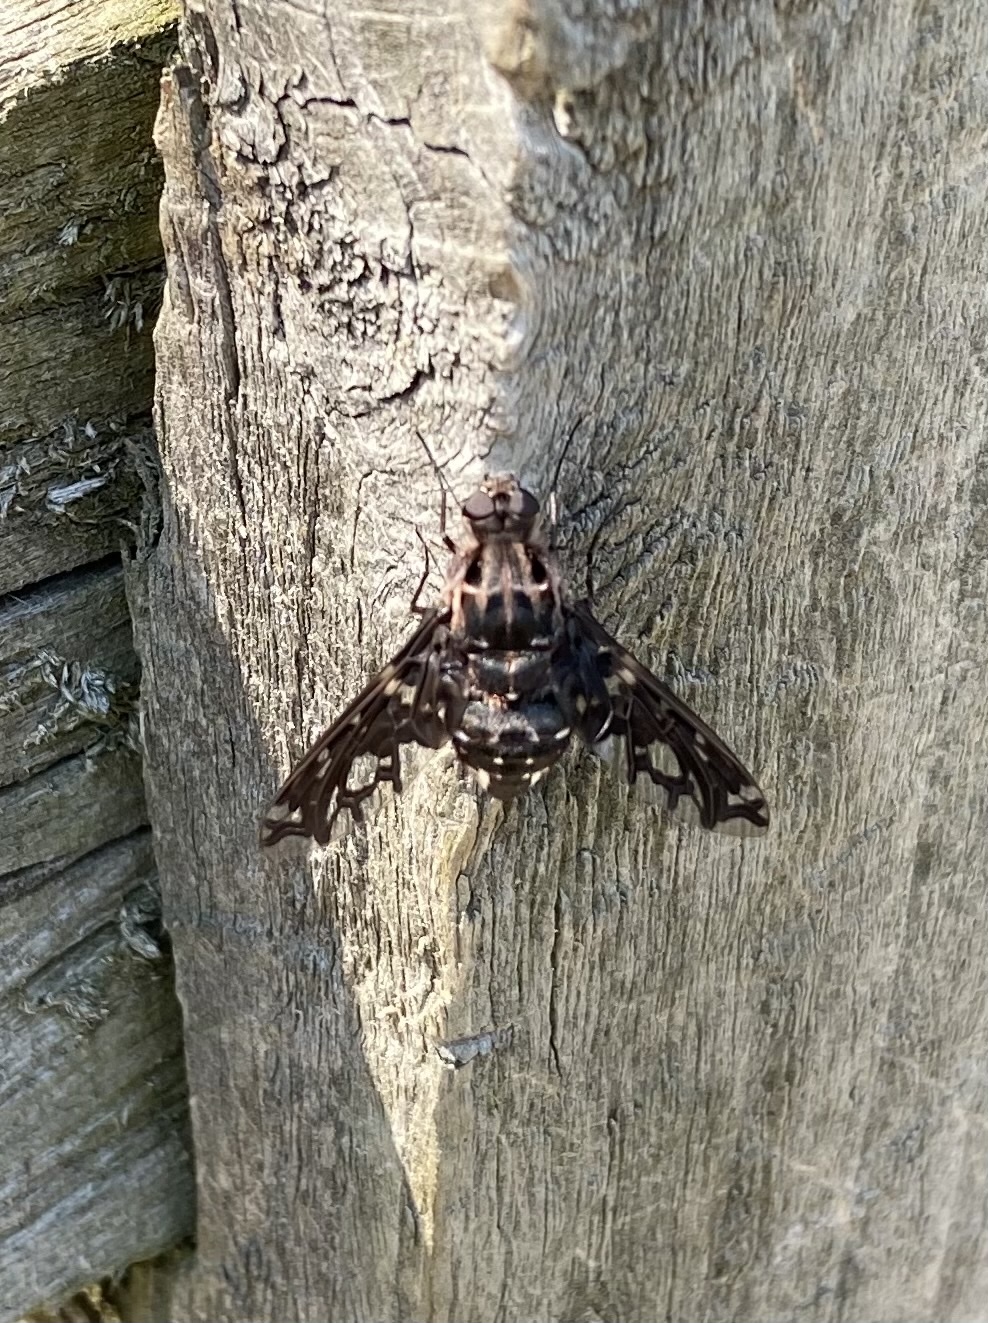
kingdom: Animalia
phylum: Arthropoda
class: Insecta
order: Diptera
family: Bombyliidae
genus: Xenox
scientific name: Xenox tigrinus
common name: Tiger bee fly
